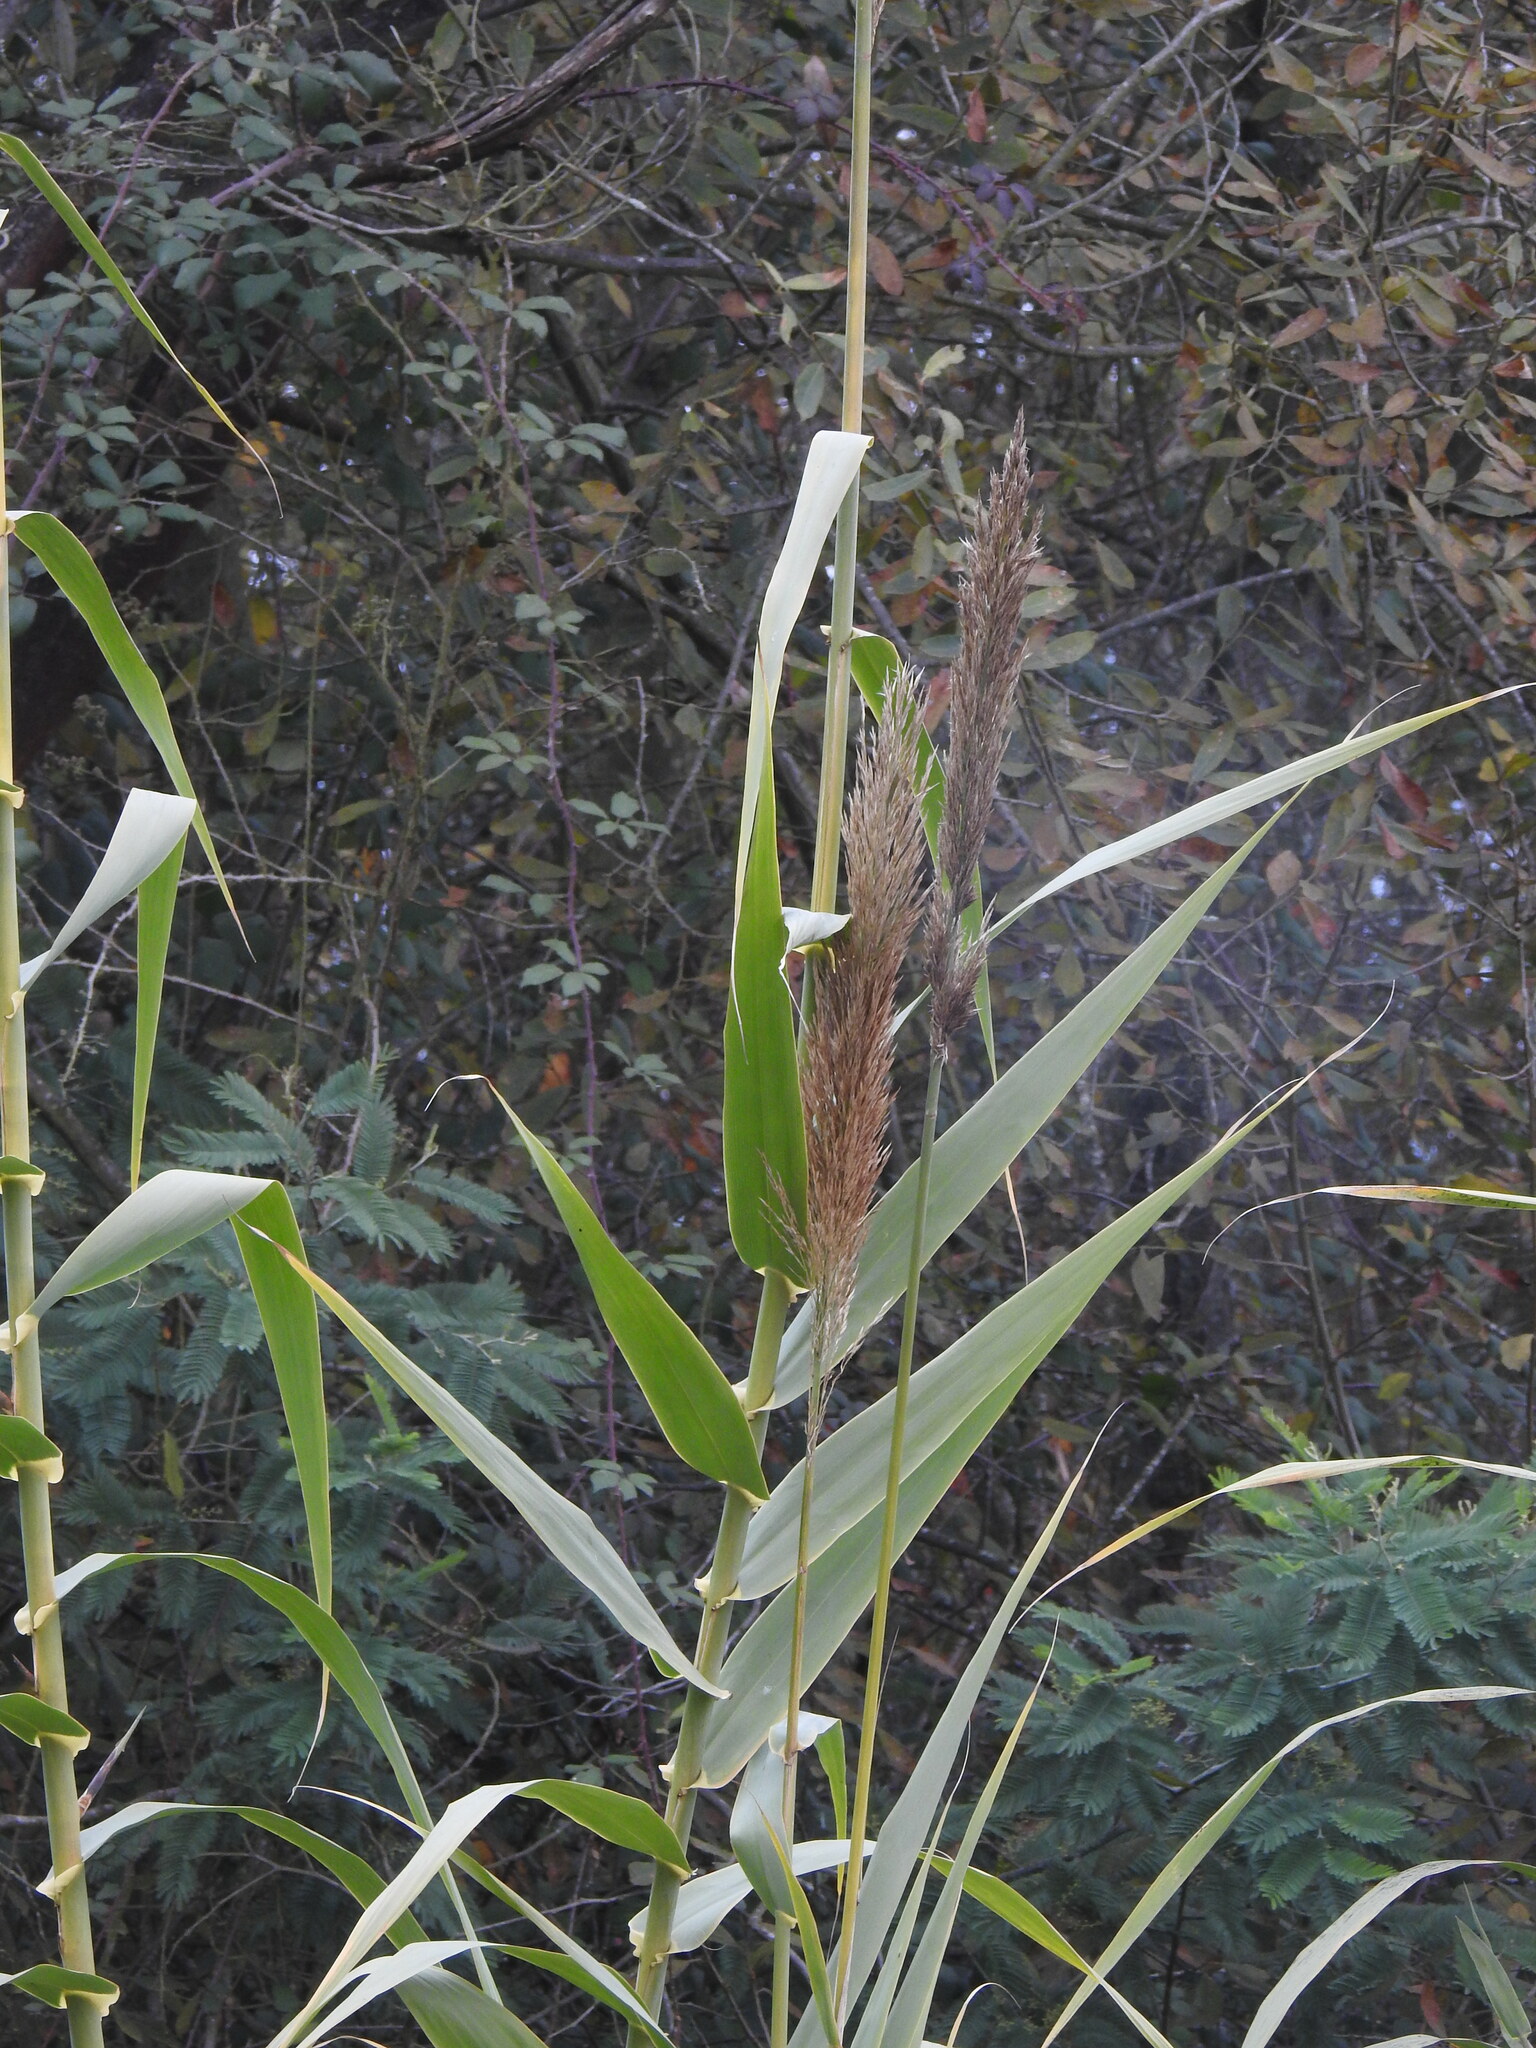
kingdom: Plantae
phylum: Tracheophyta
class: Liliopsida
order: Poales
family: Poaceae
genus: Arundo
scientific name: Arundo donax
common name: Giant reed
